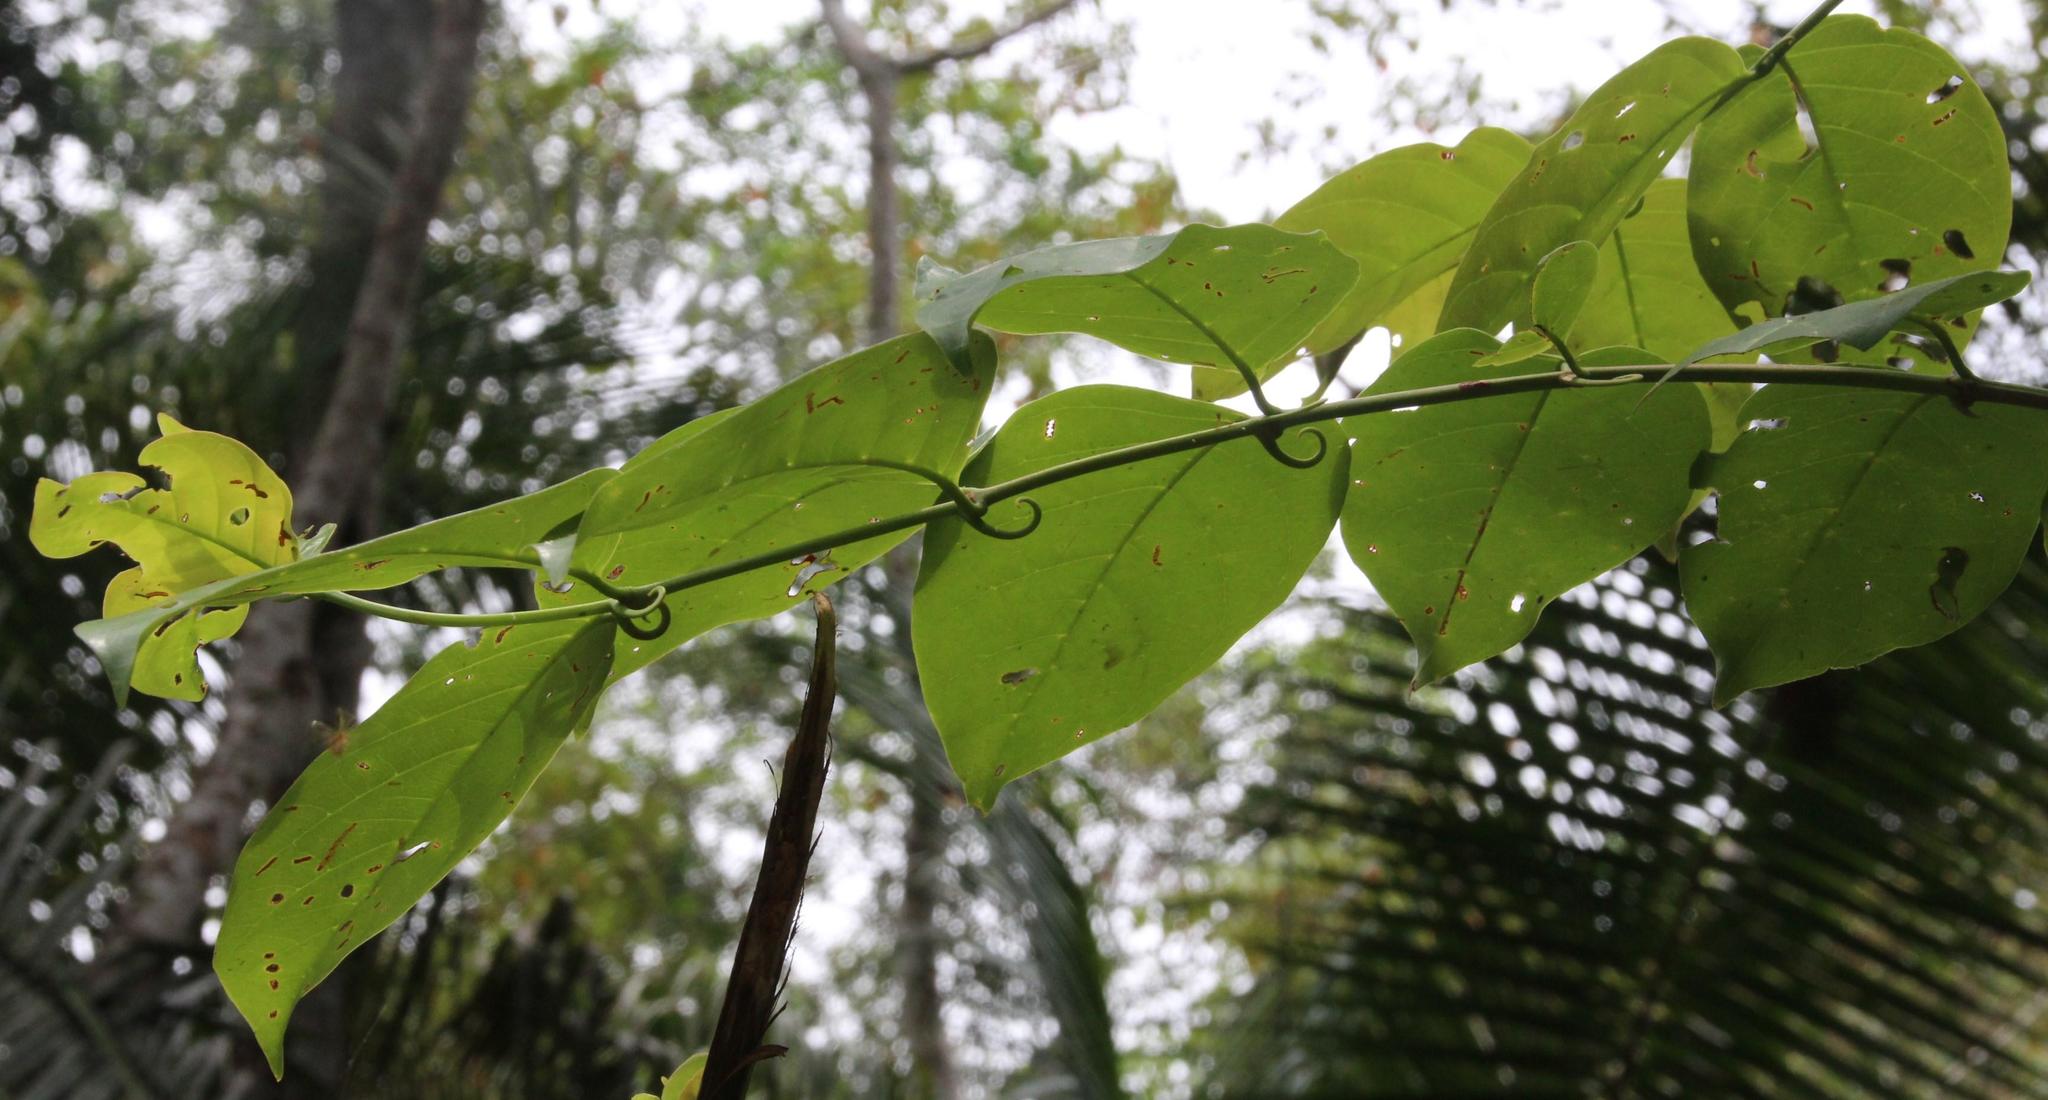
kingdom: Plantae
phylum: Tracheophyta
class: Magnoliopsida
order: Gentianales
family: Rubiaceae
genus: Uncaria
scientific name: Uncaria guianensis
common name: Cat's-claw
